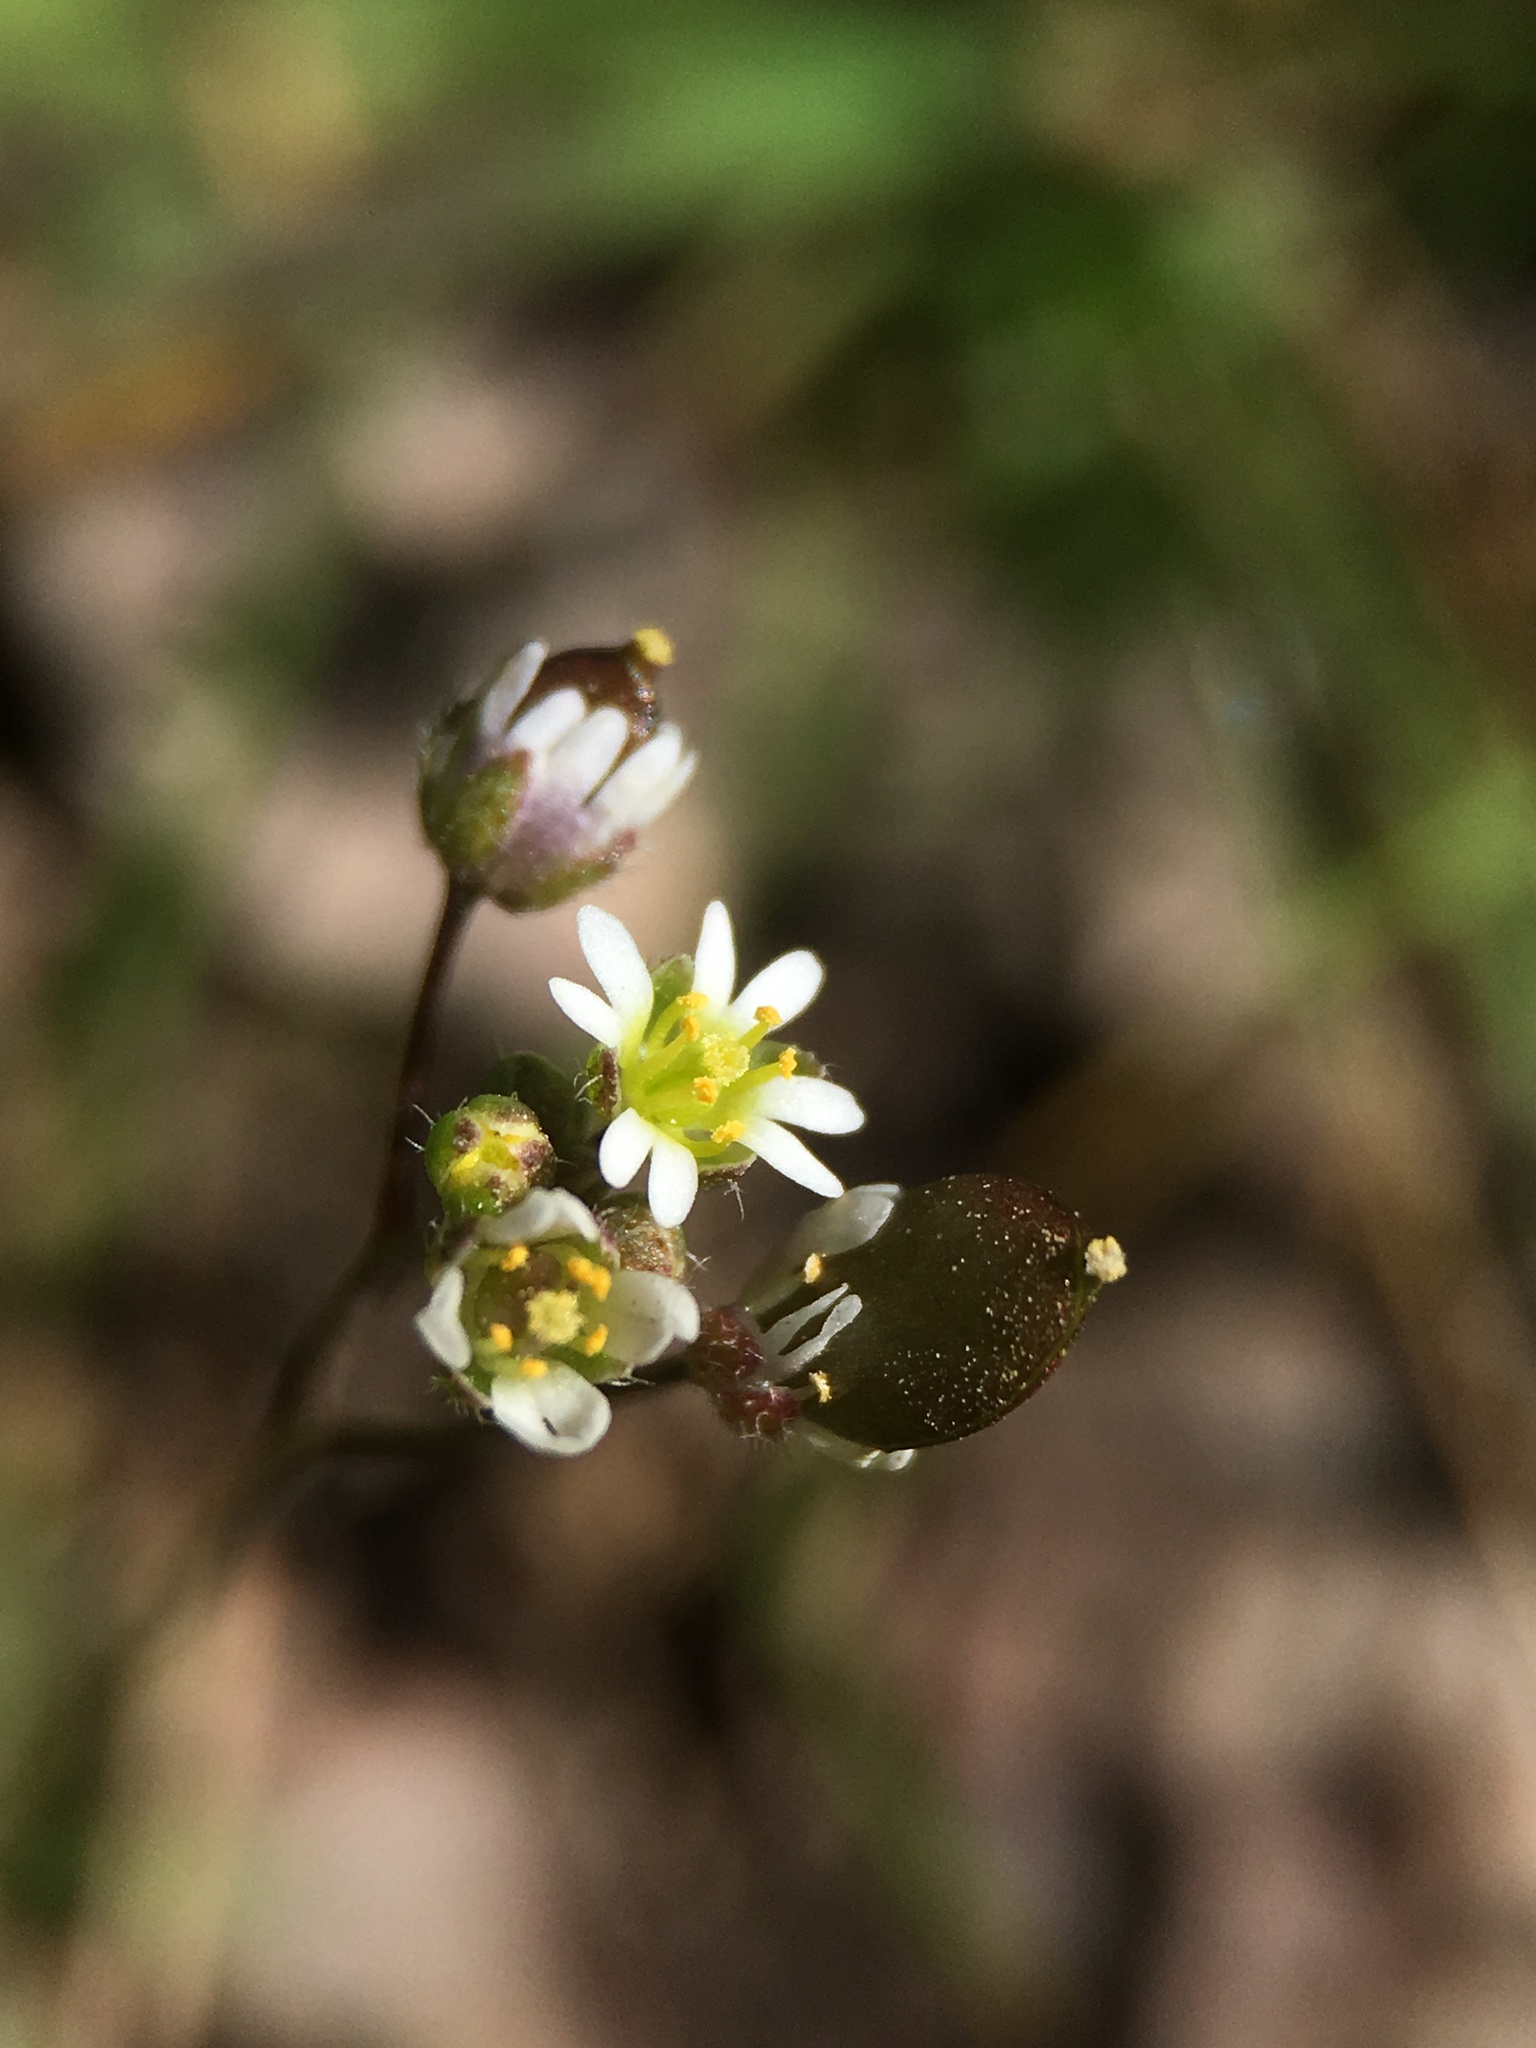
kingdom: Plantae
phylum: Tracheophyta
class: Magnoliopsida
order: Brassicales
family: Brassicaceae
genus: Draba
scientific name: Draba verna
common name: Spring draba
